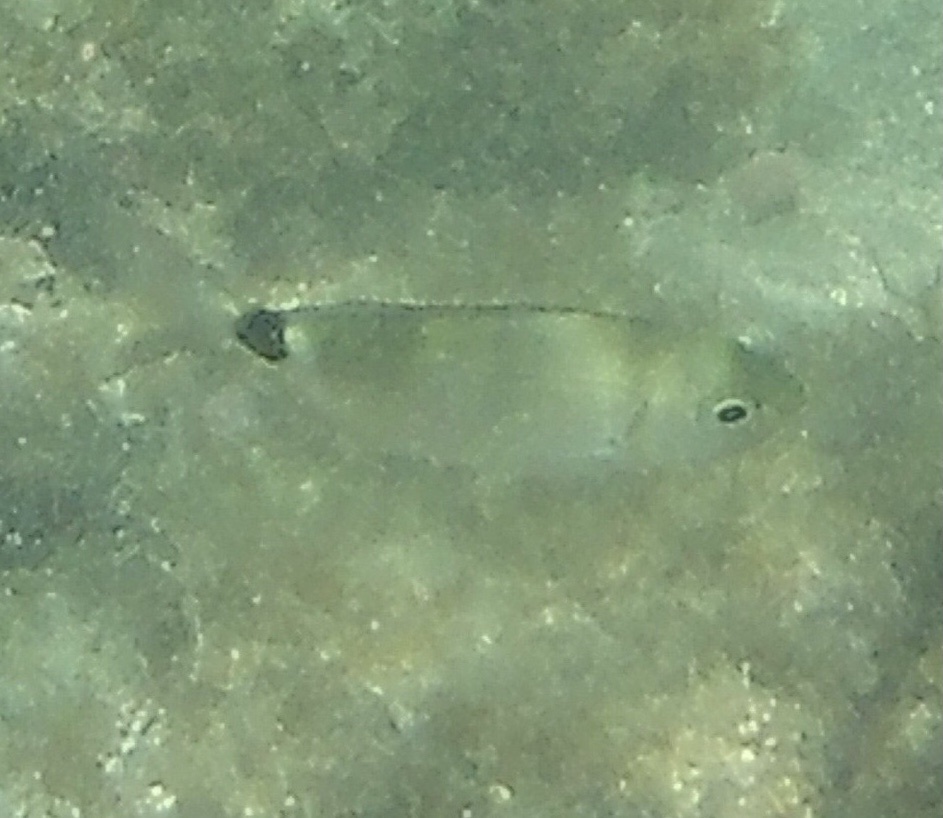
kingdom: Animalia
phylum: Chordata
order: Perciformes
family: Sparidae
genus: Oblada
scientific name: Oblada melanura
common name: Saddled seabream
